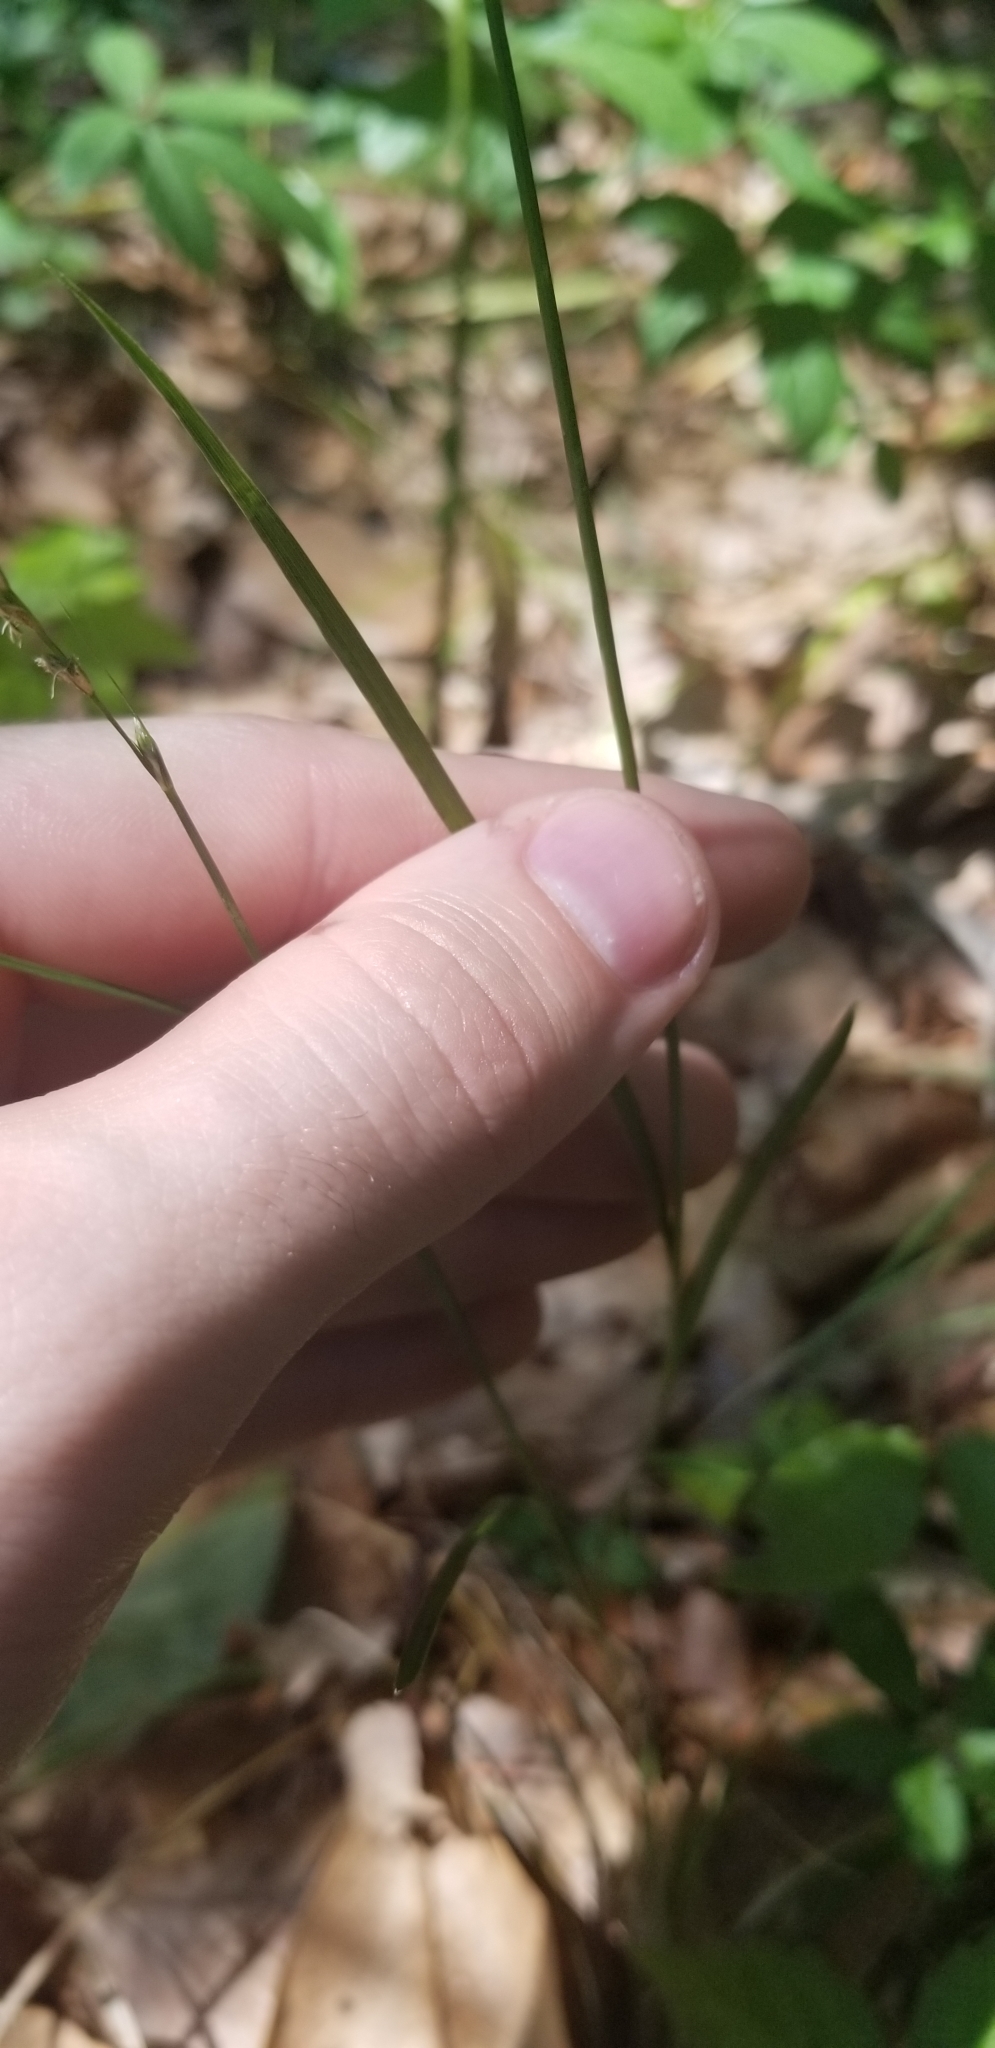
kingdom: Plantae
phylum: Tracheophyta
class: Liliopsida
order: Poales
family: Cyperaceae
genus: Carex
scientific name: Carex tribuloides
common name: Blunt broom sedge
